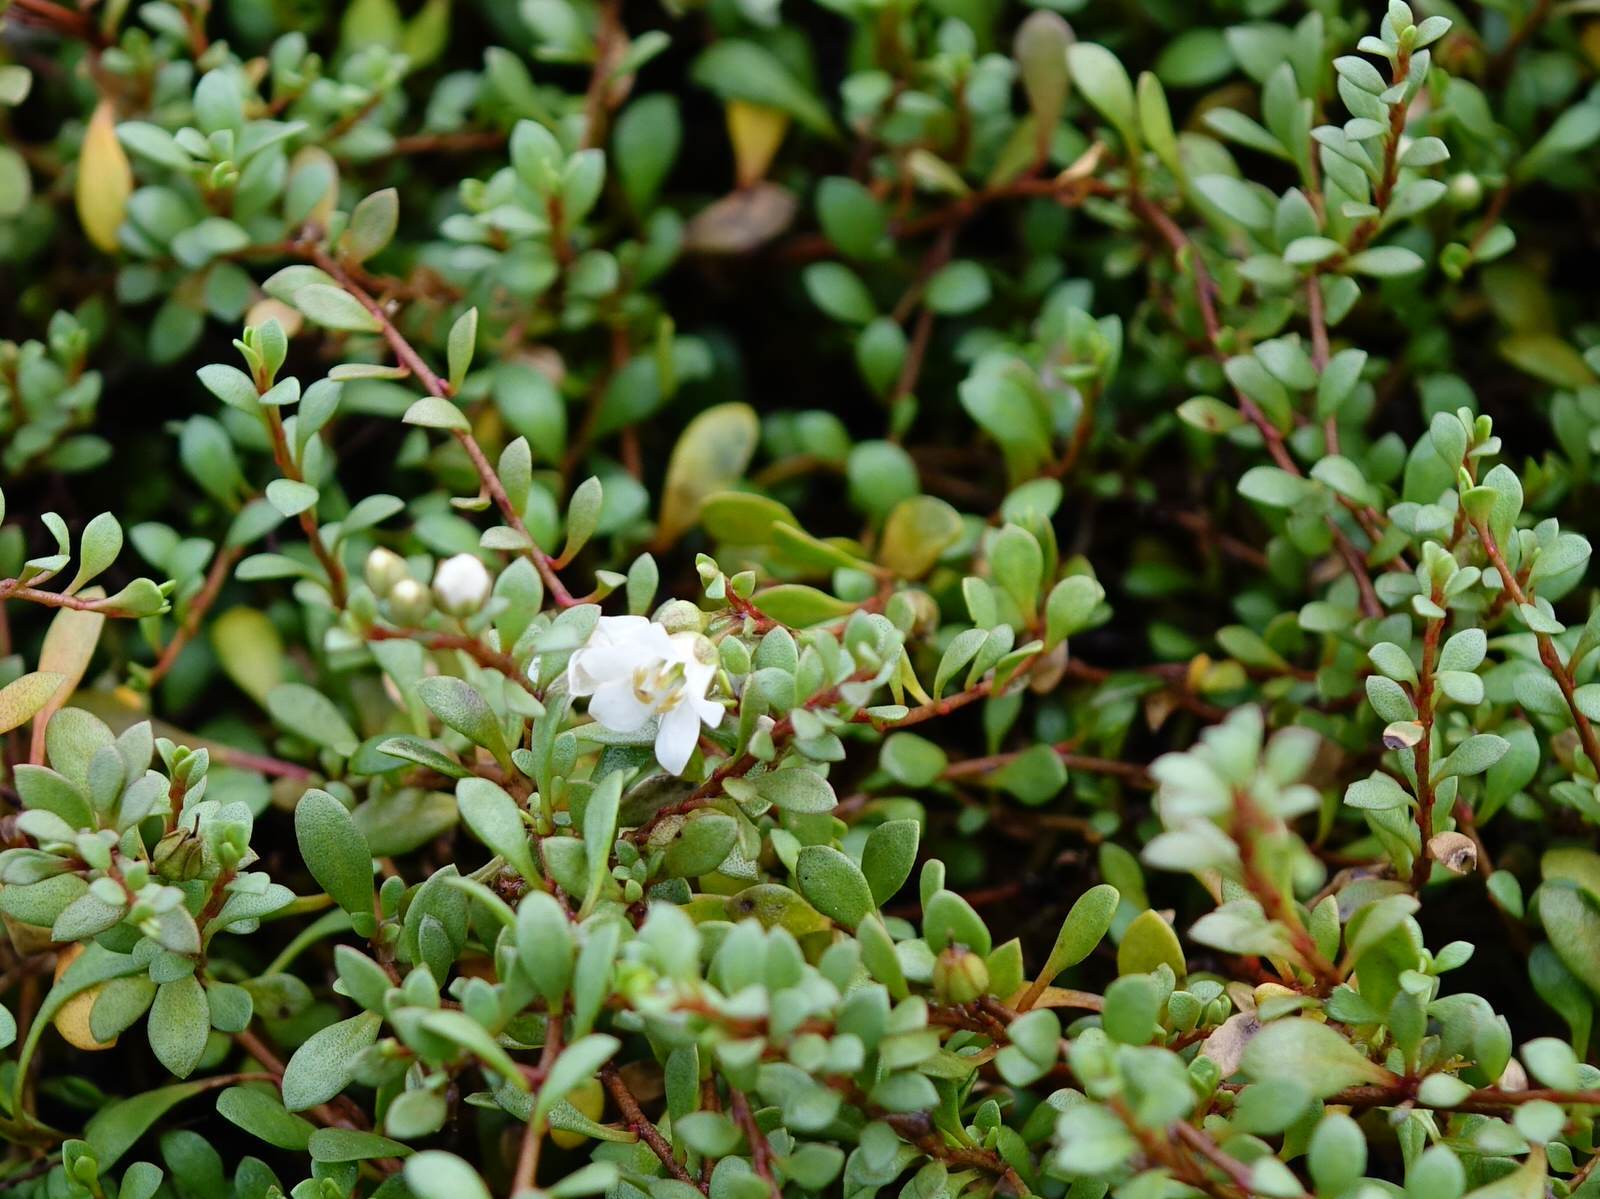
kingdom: Plantae
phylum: Tracheophyta
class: Magnoliopsida
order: Ericales
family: Primulaceae
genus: Samolus
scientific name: Samolus repens
